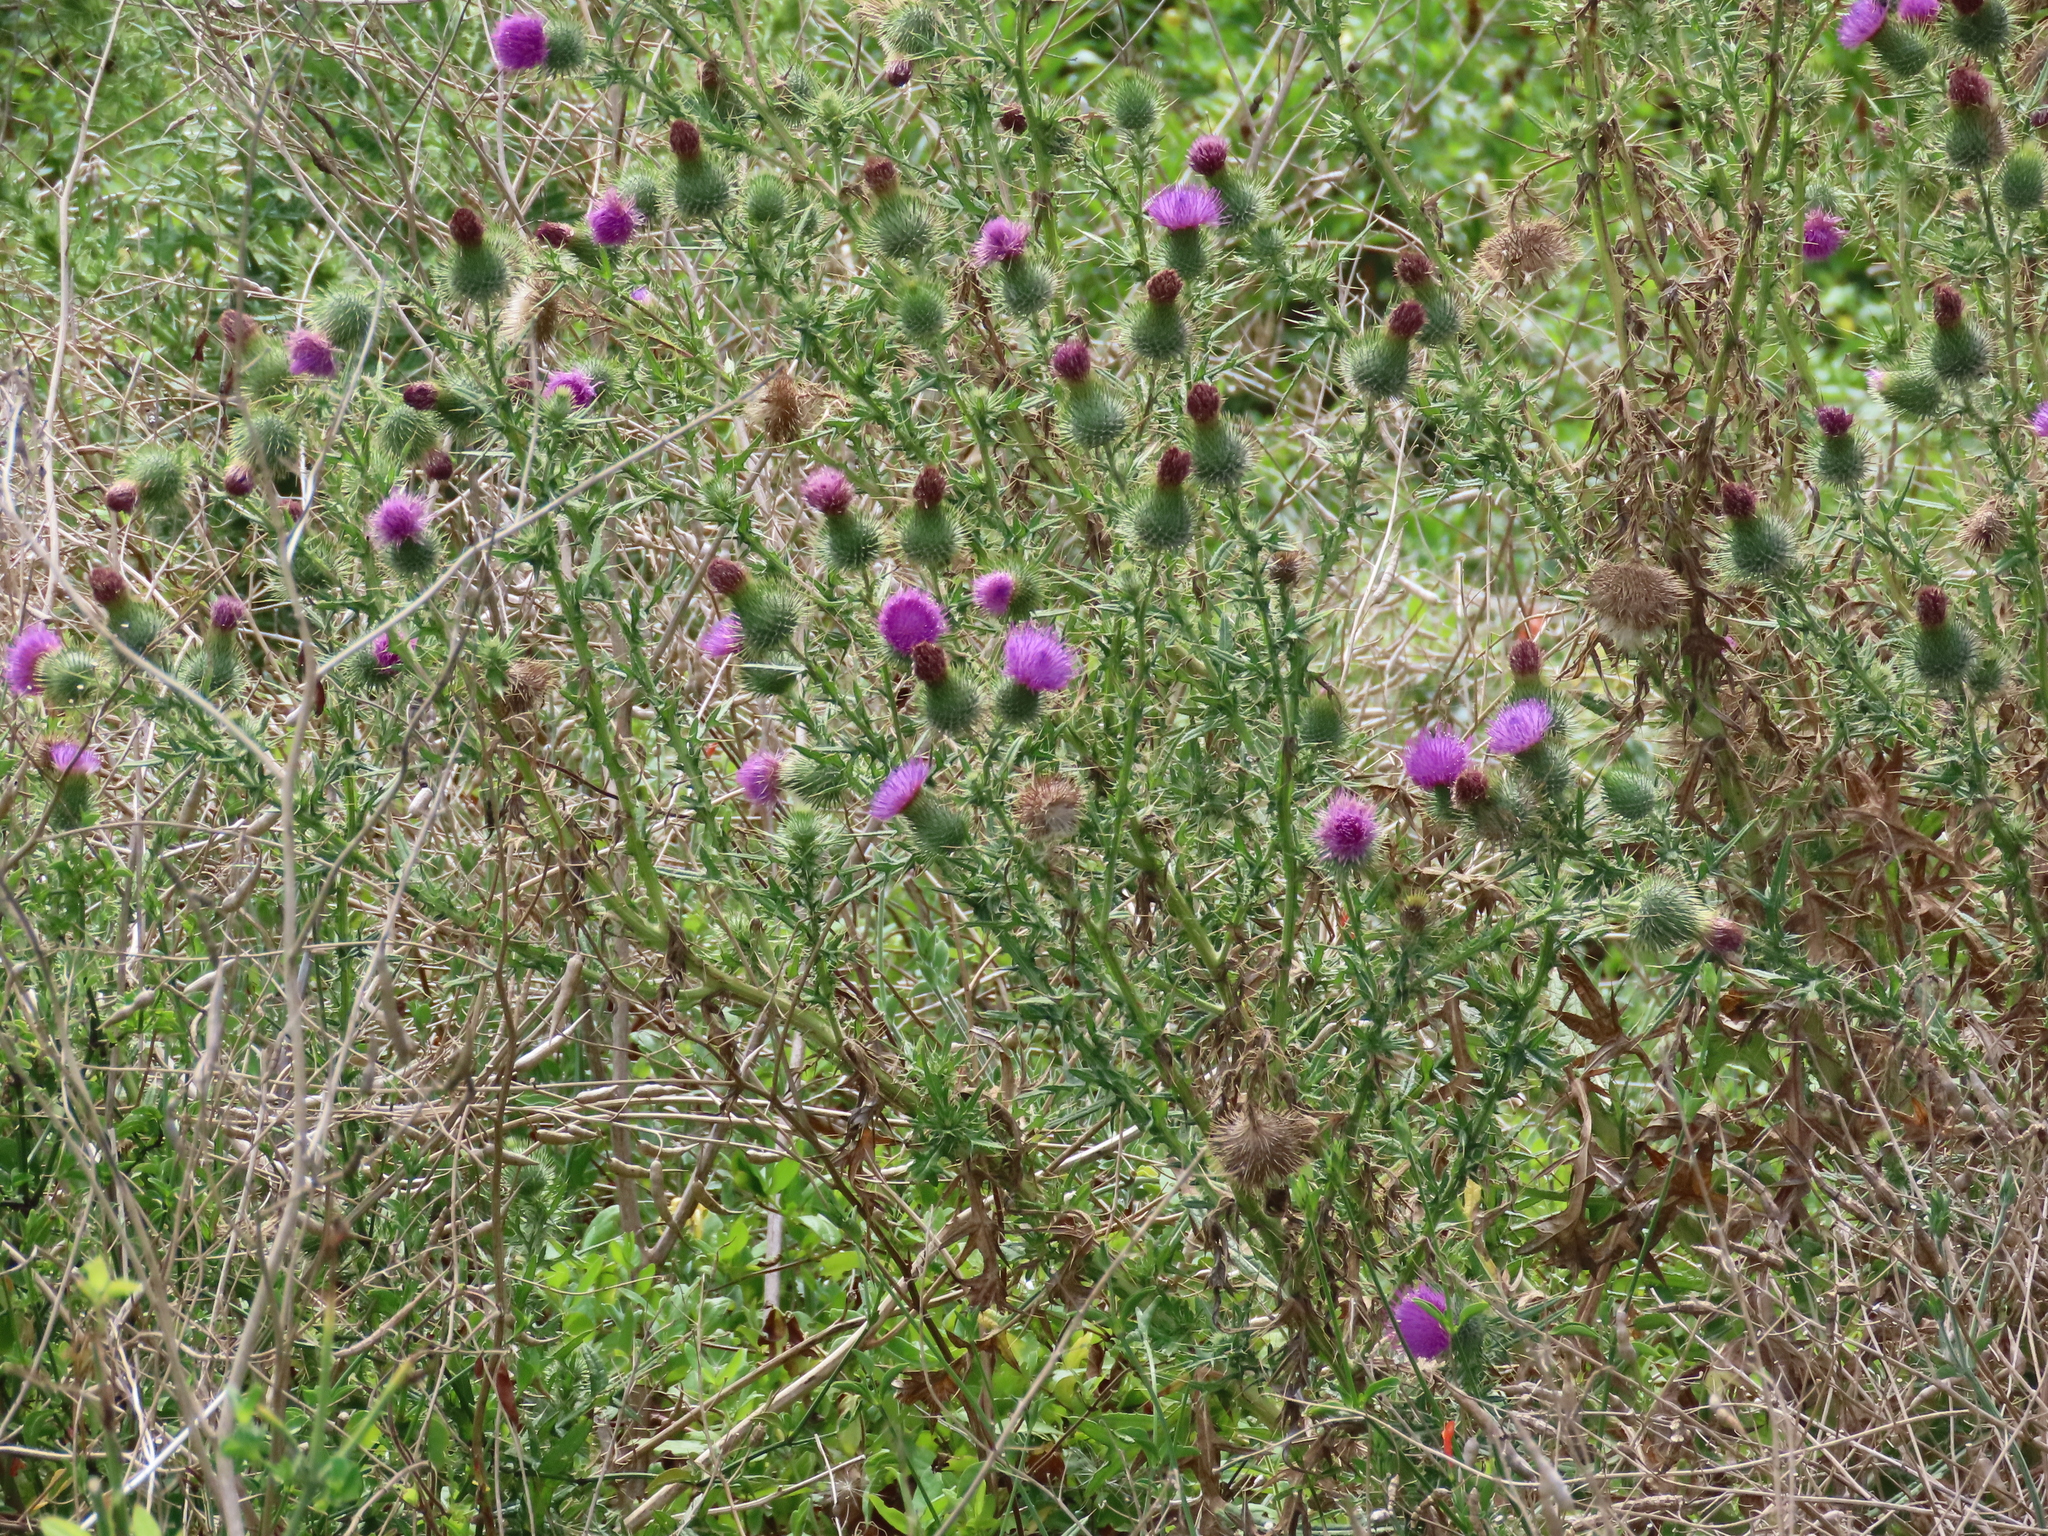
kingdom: Plantae
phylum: Tracheophyta
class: Magnoliopsida
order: Asterales
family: Asteraceae
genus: Cirsium
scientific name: Cirsium vulgare
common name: Bull thistle
